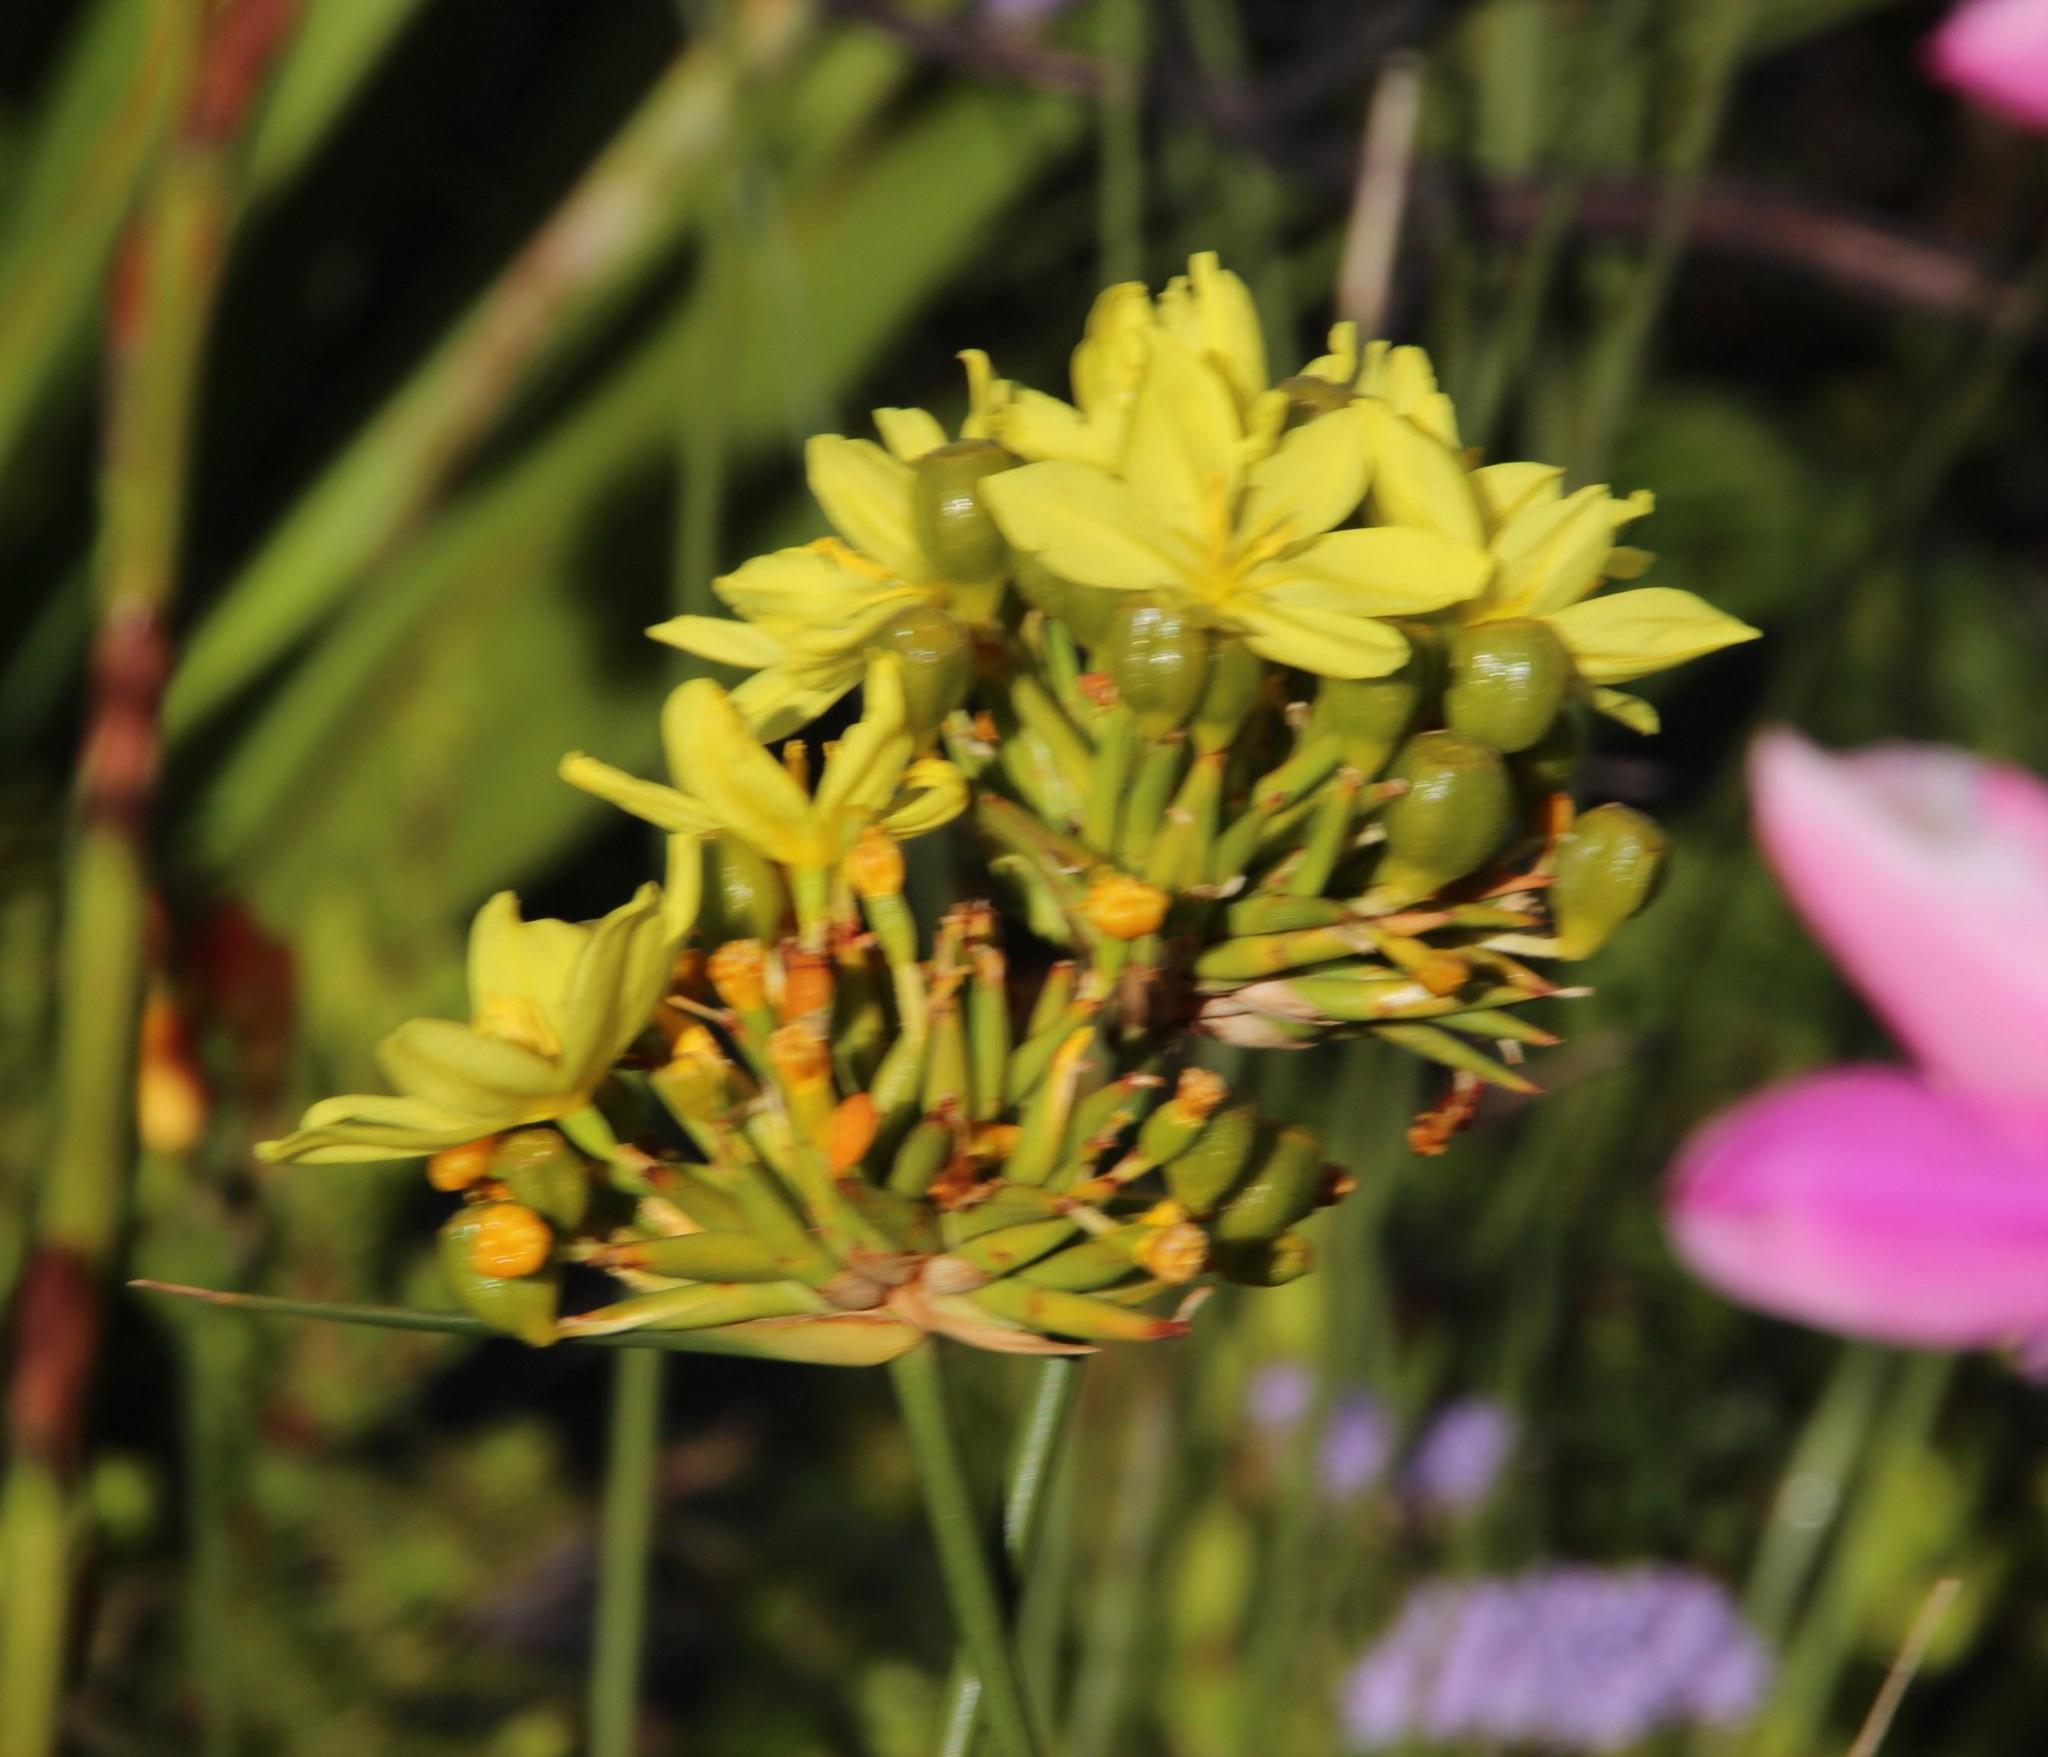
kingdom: Plantae
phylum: Tracheophyta
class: Liliopsida
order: Asparagales
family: Iridaceae
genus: Bobartia
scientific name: Bobartia indica
